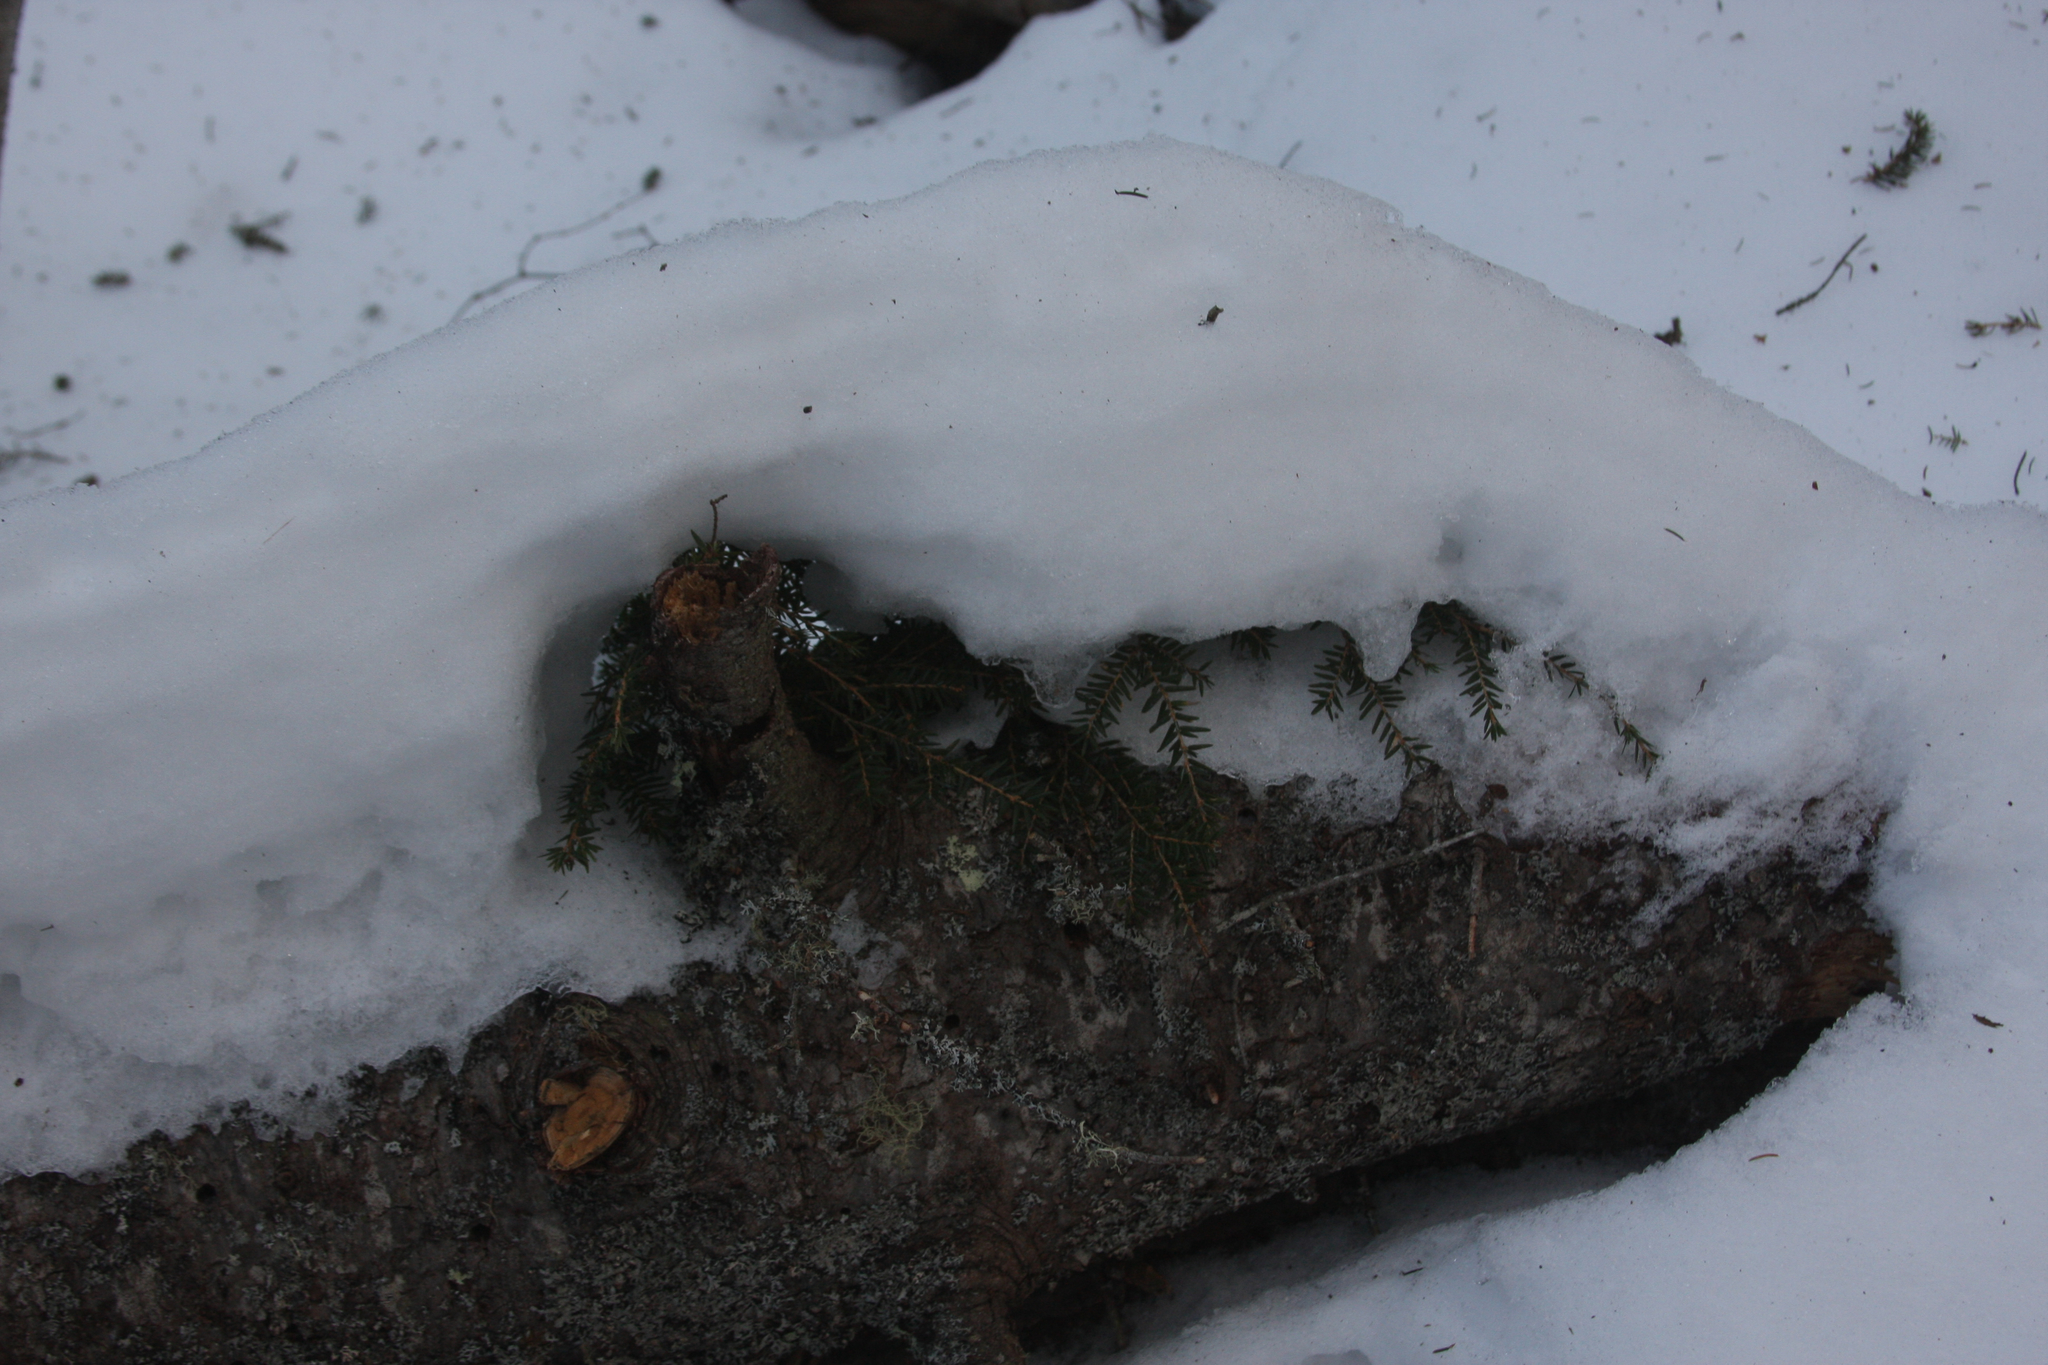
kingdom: Plantae
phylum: Tracheophyta
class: Pinopsida
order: Pinales
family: Pinaceae
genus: Tsuga
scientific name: Tsuga canadensis
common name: Eastern hemlock
